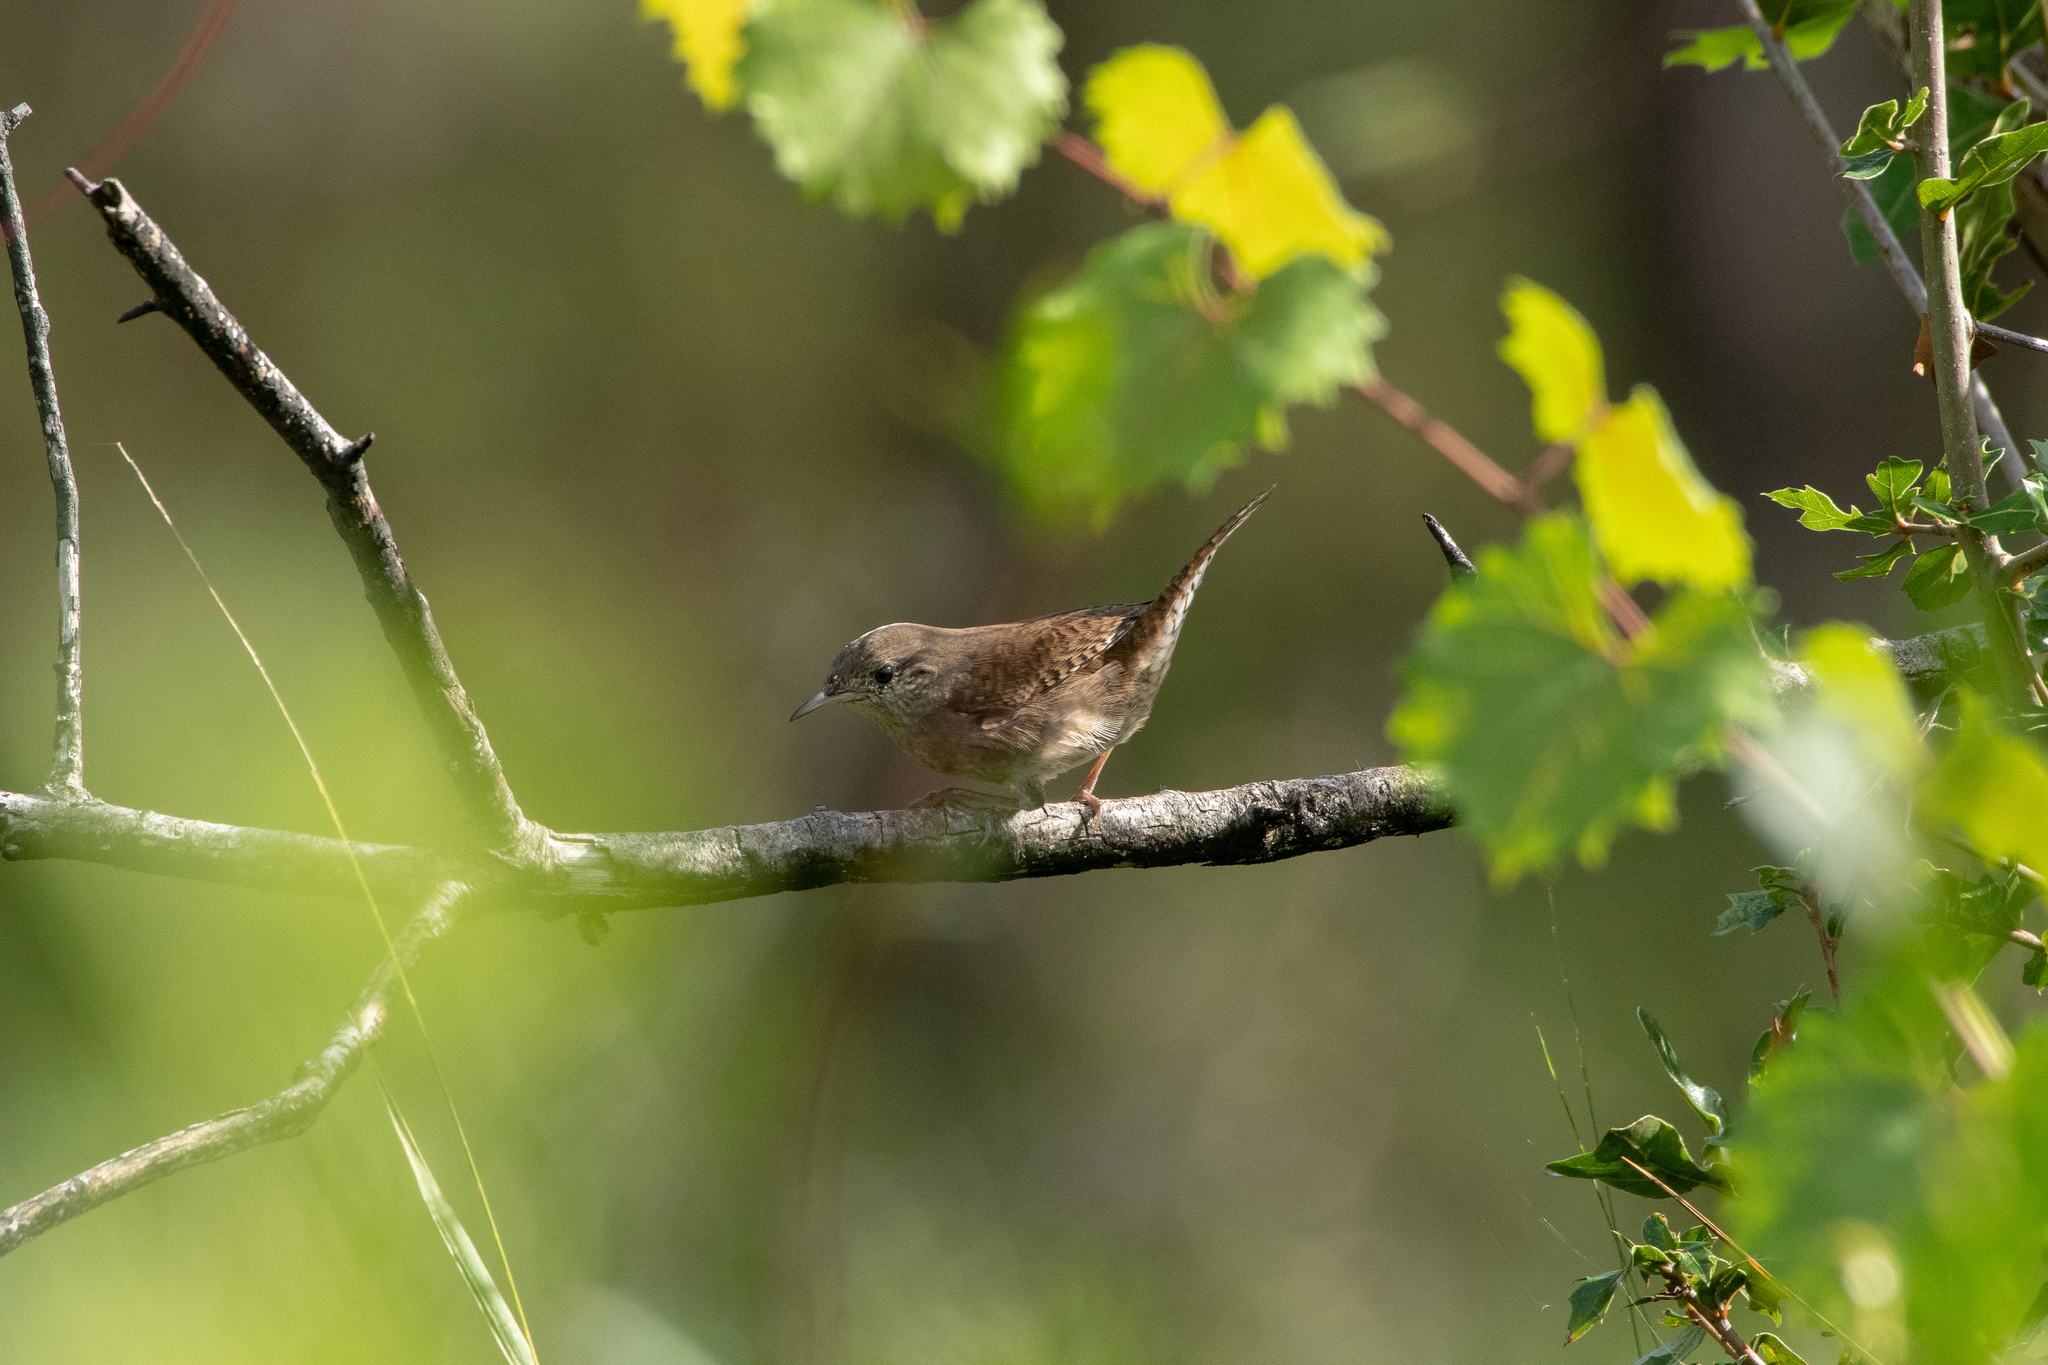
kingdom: Animalia
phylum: Chordata
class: Aves
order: Passeriformes
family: Troglodytidae
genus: Troglodytes
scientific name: Troglodytes aedon
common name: House wren
